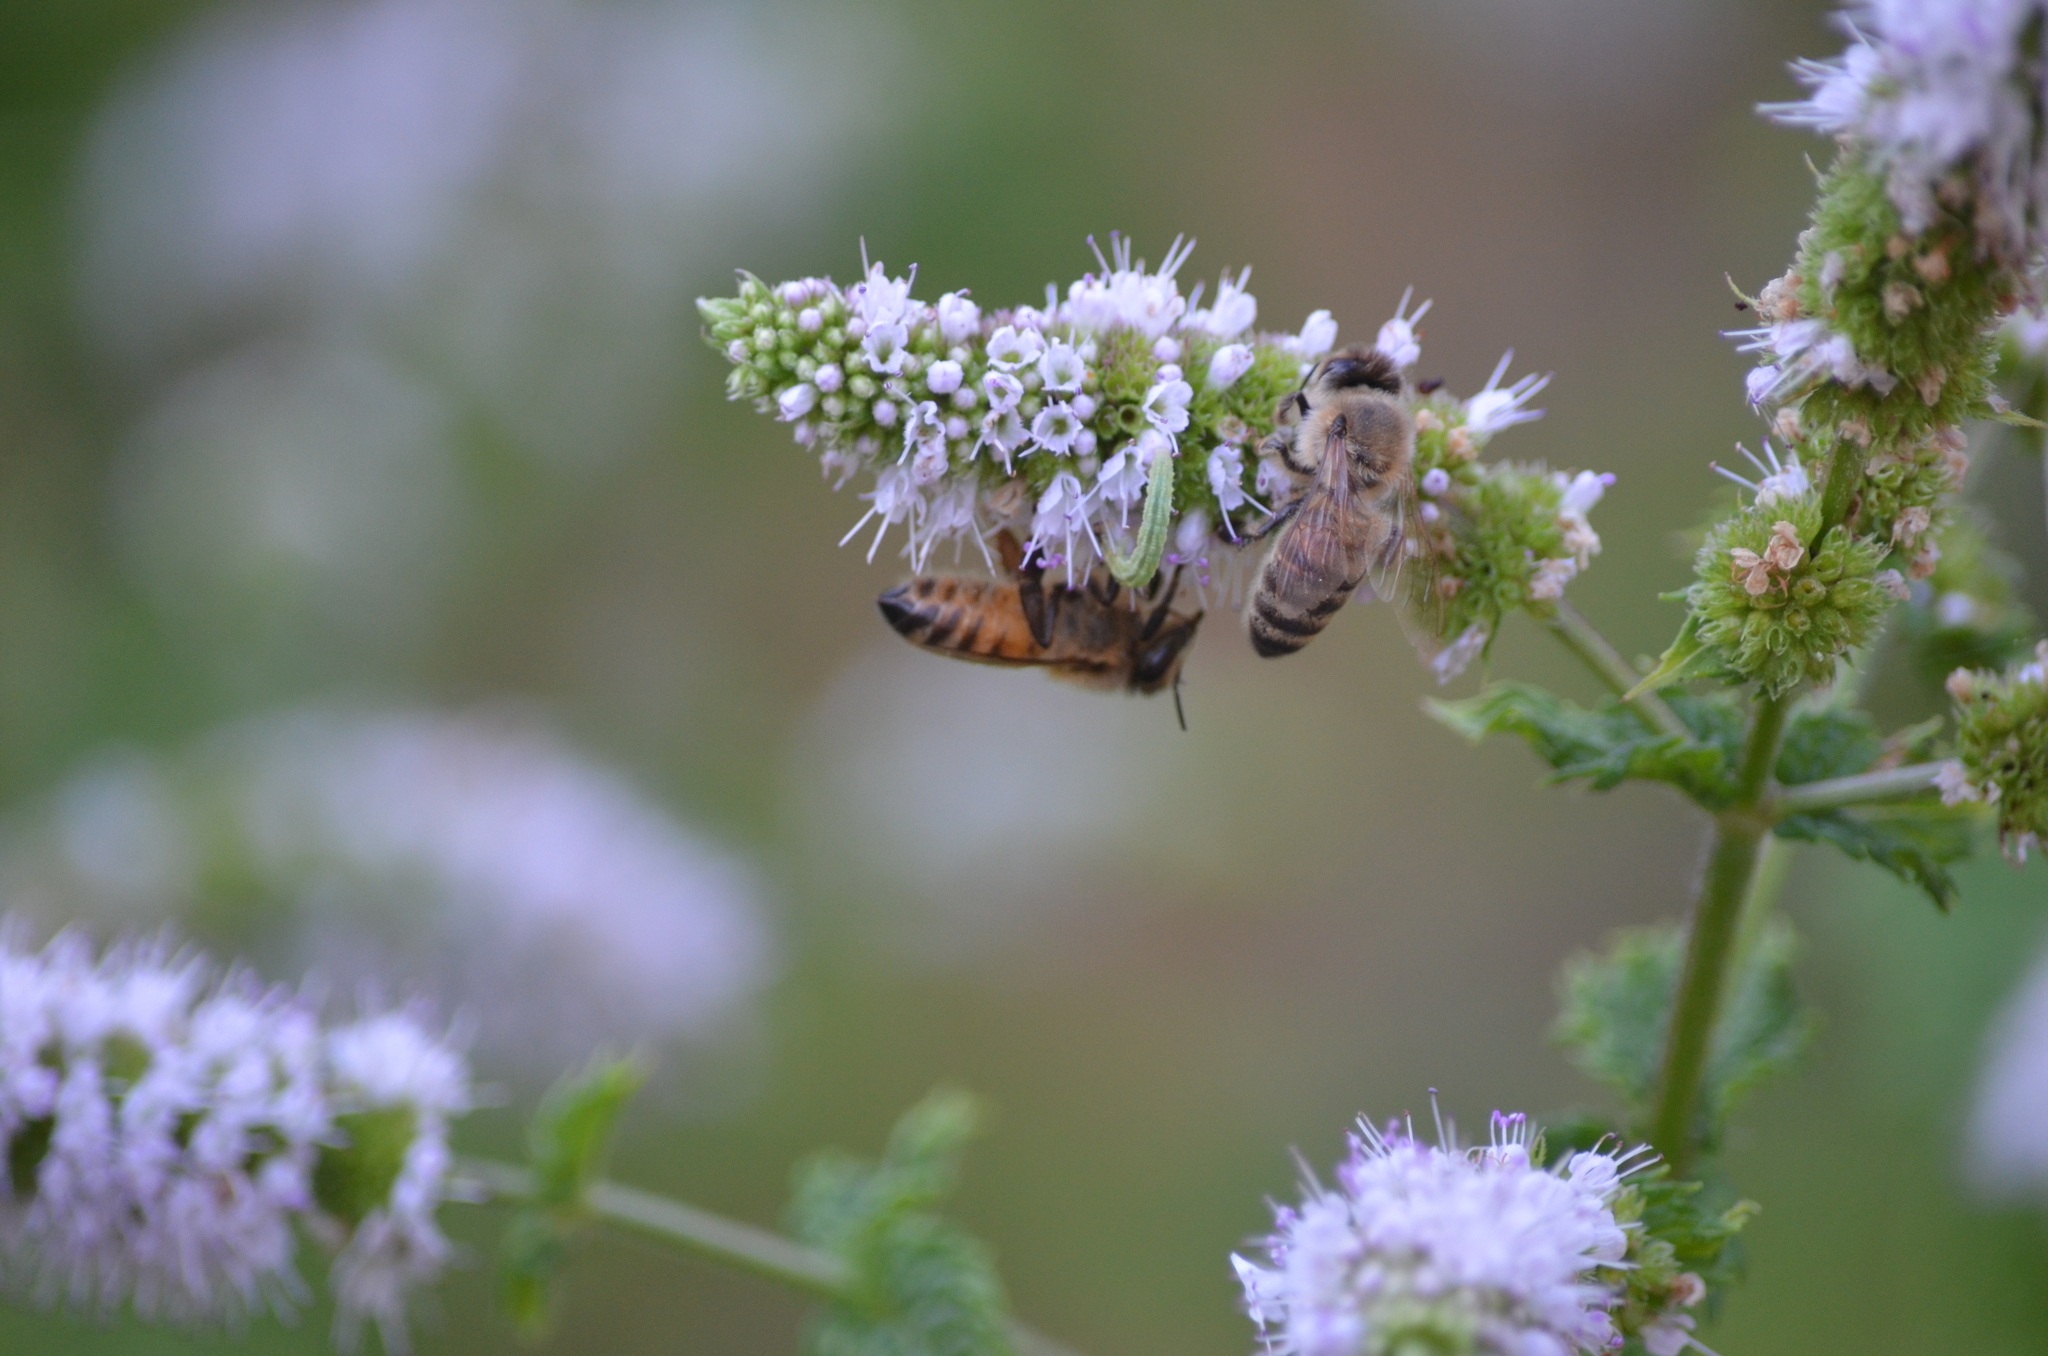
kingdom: Animalia
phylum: Arthropoda
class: Insecta
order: Hymenoptera
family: Apidae
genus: Apis
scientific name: Apis mellifera
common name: Honey bee
